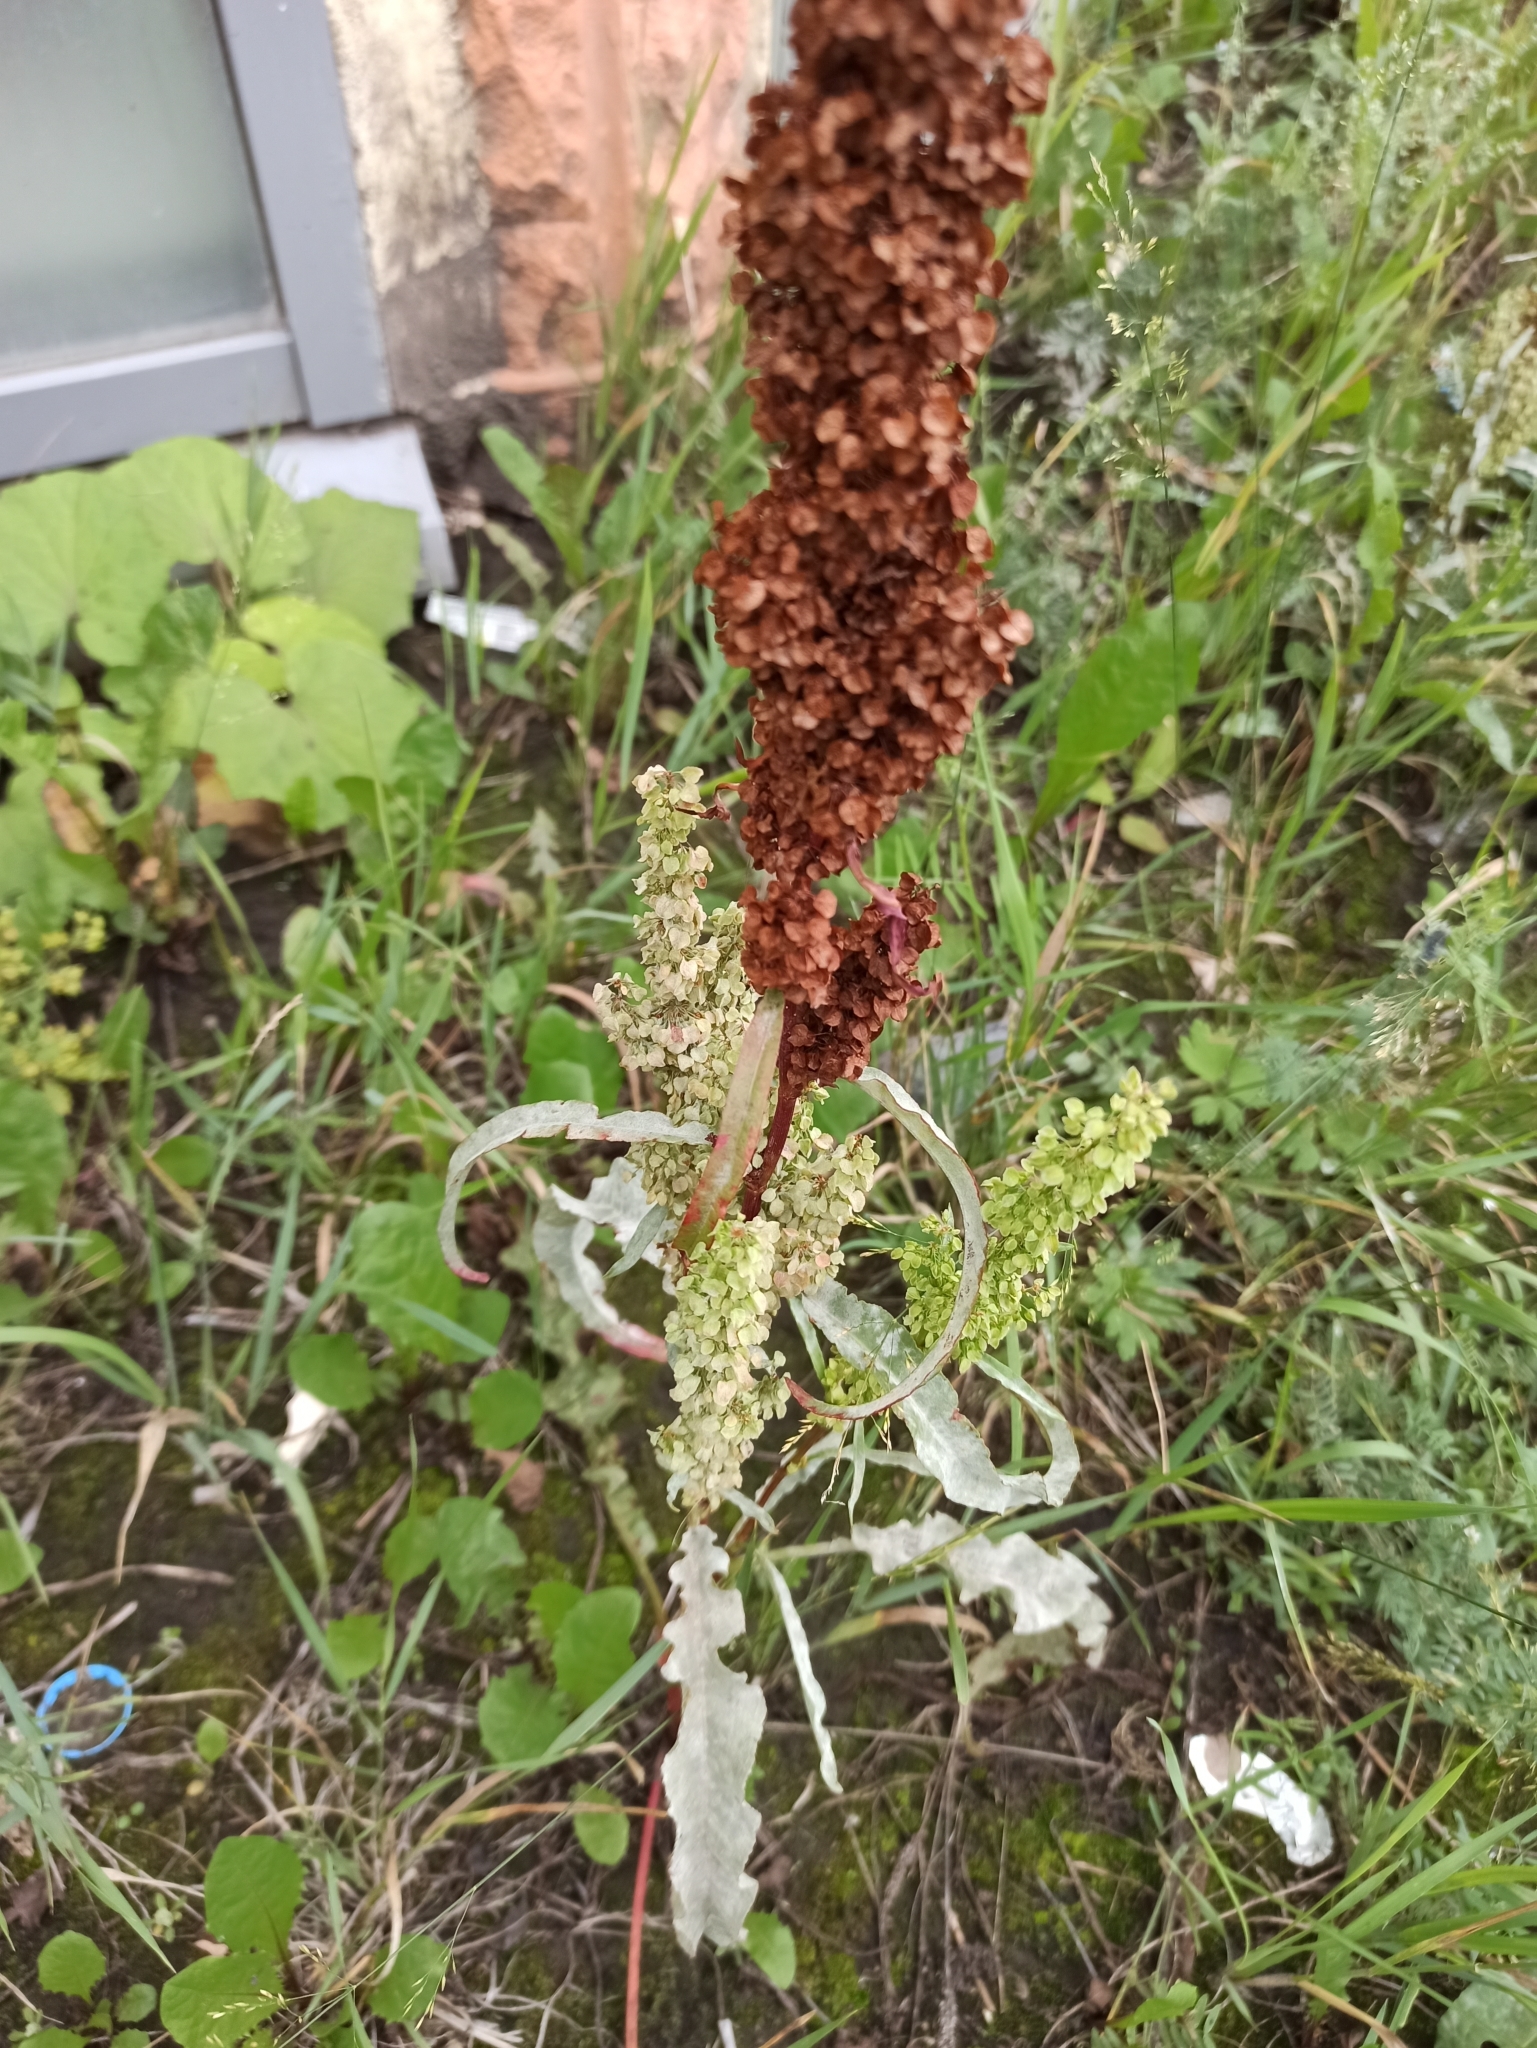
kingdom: Plantae
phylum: Tracheophyta
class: Magnoliopsida
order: Caryophyllales
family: Polygonaceae
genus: Rumex
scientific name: Rumex pseudonatronatus
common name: Field dock
